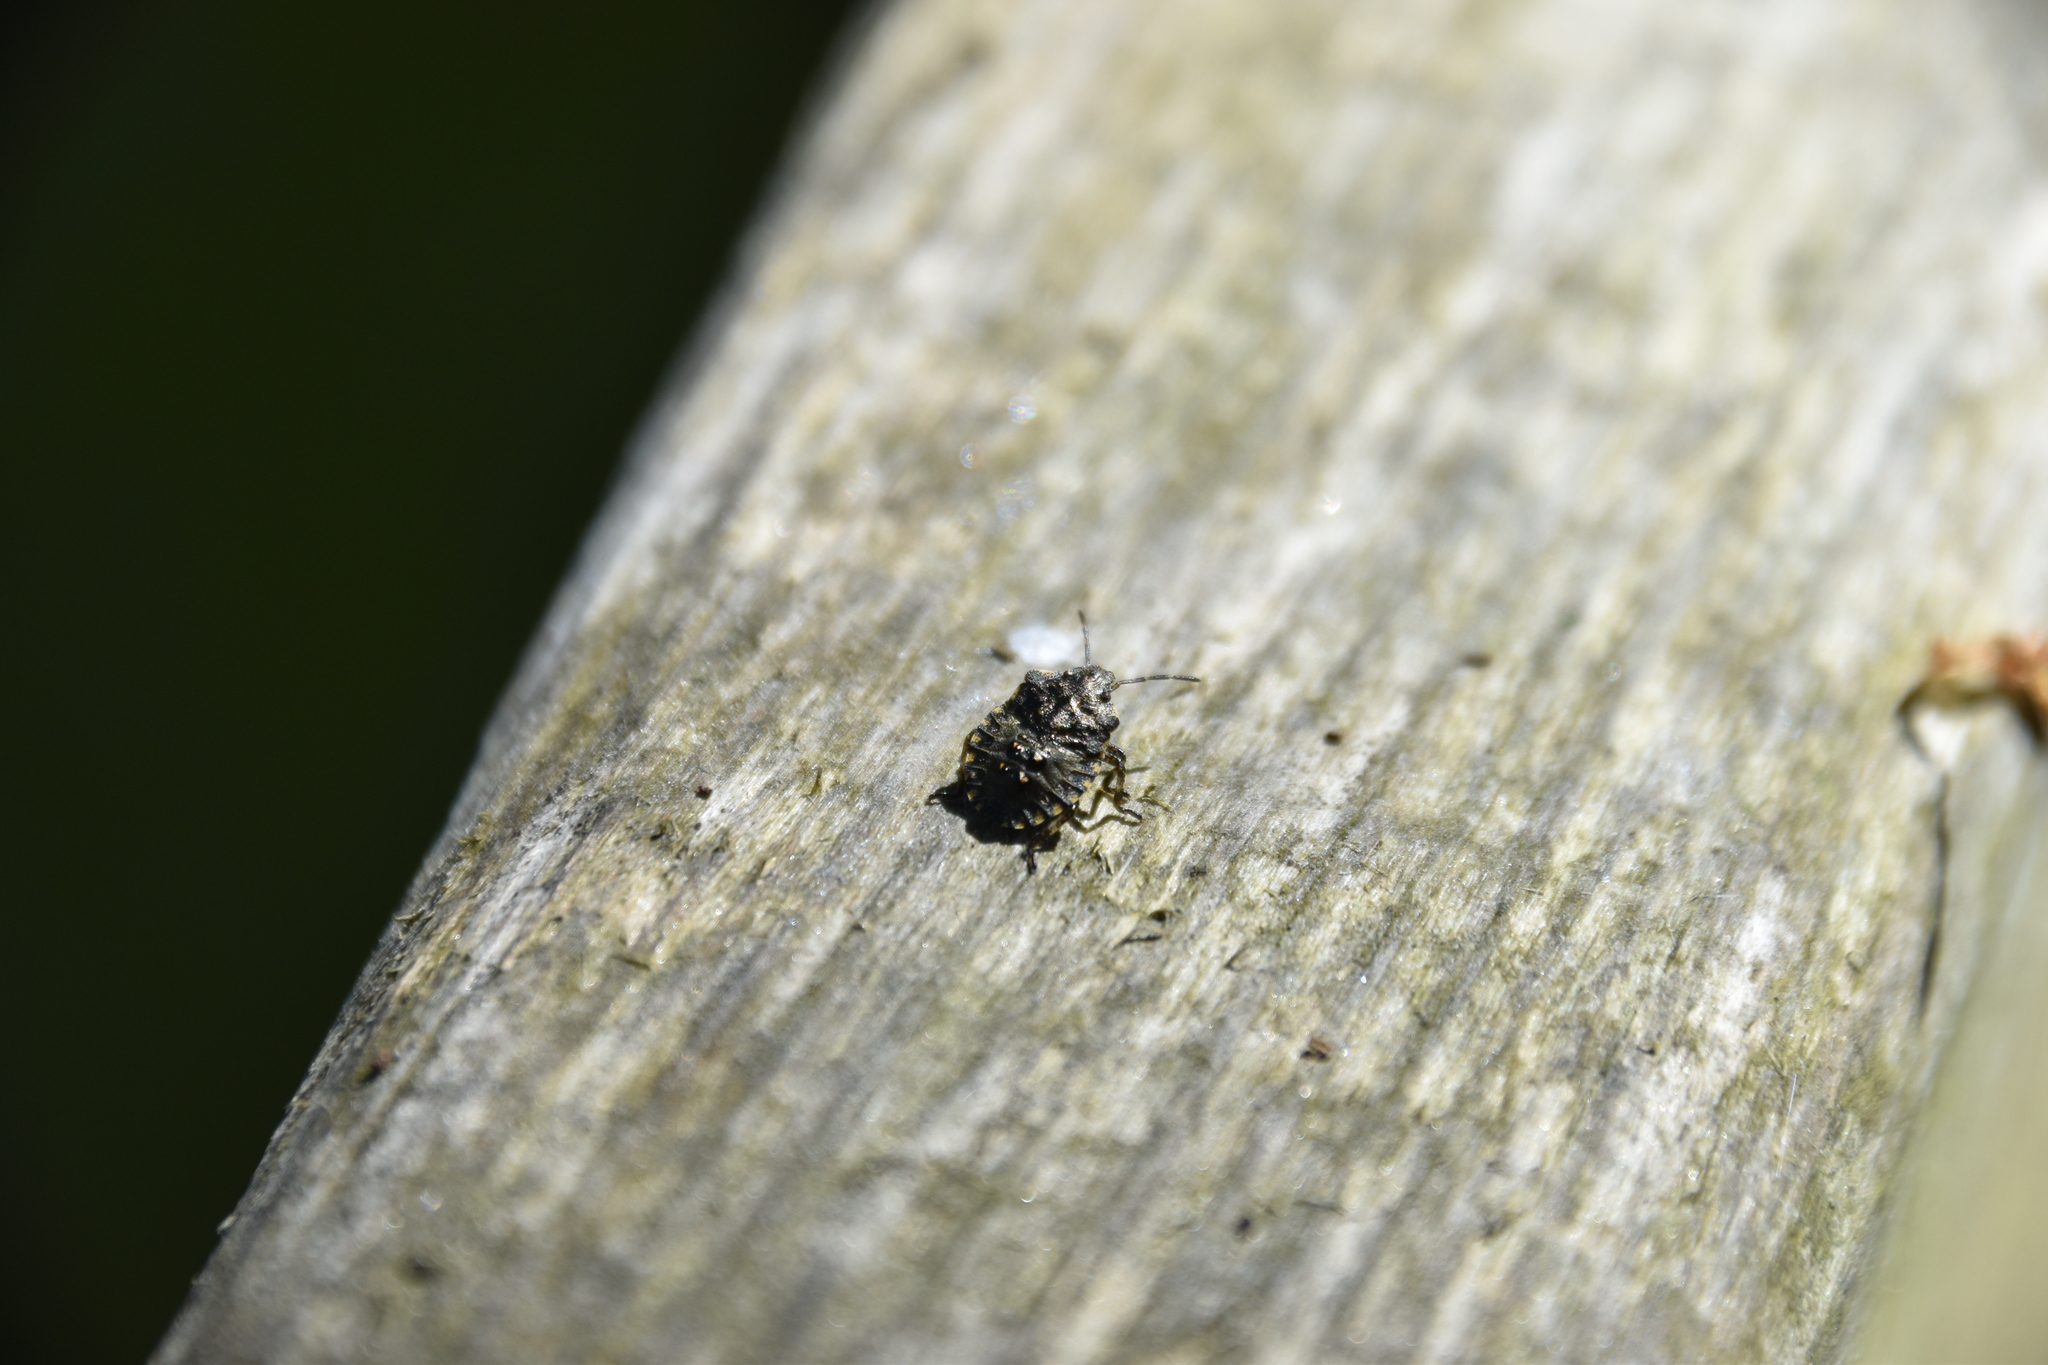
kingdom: Animalia
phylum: Arthropoda
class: Insecta
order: Hemiptera
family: Pentatomidae
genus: Pentatoma
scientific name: Pentatoma rufipes
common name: Forest bug
